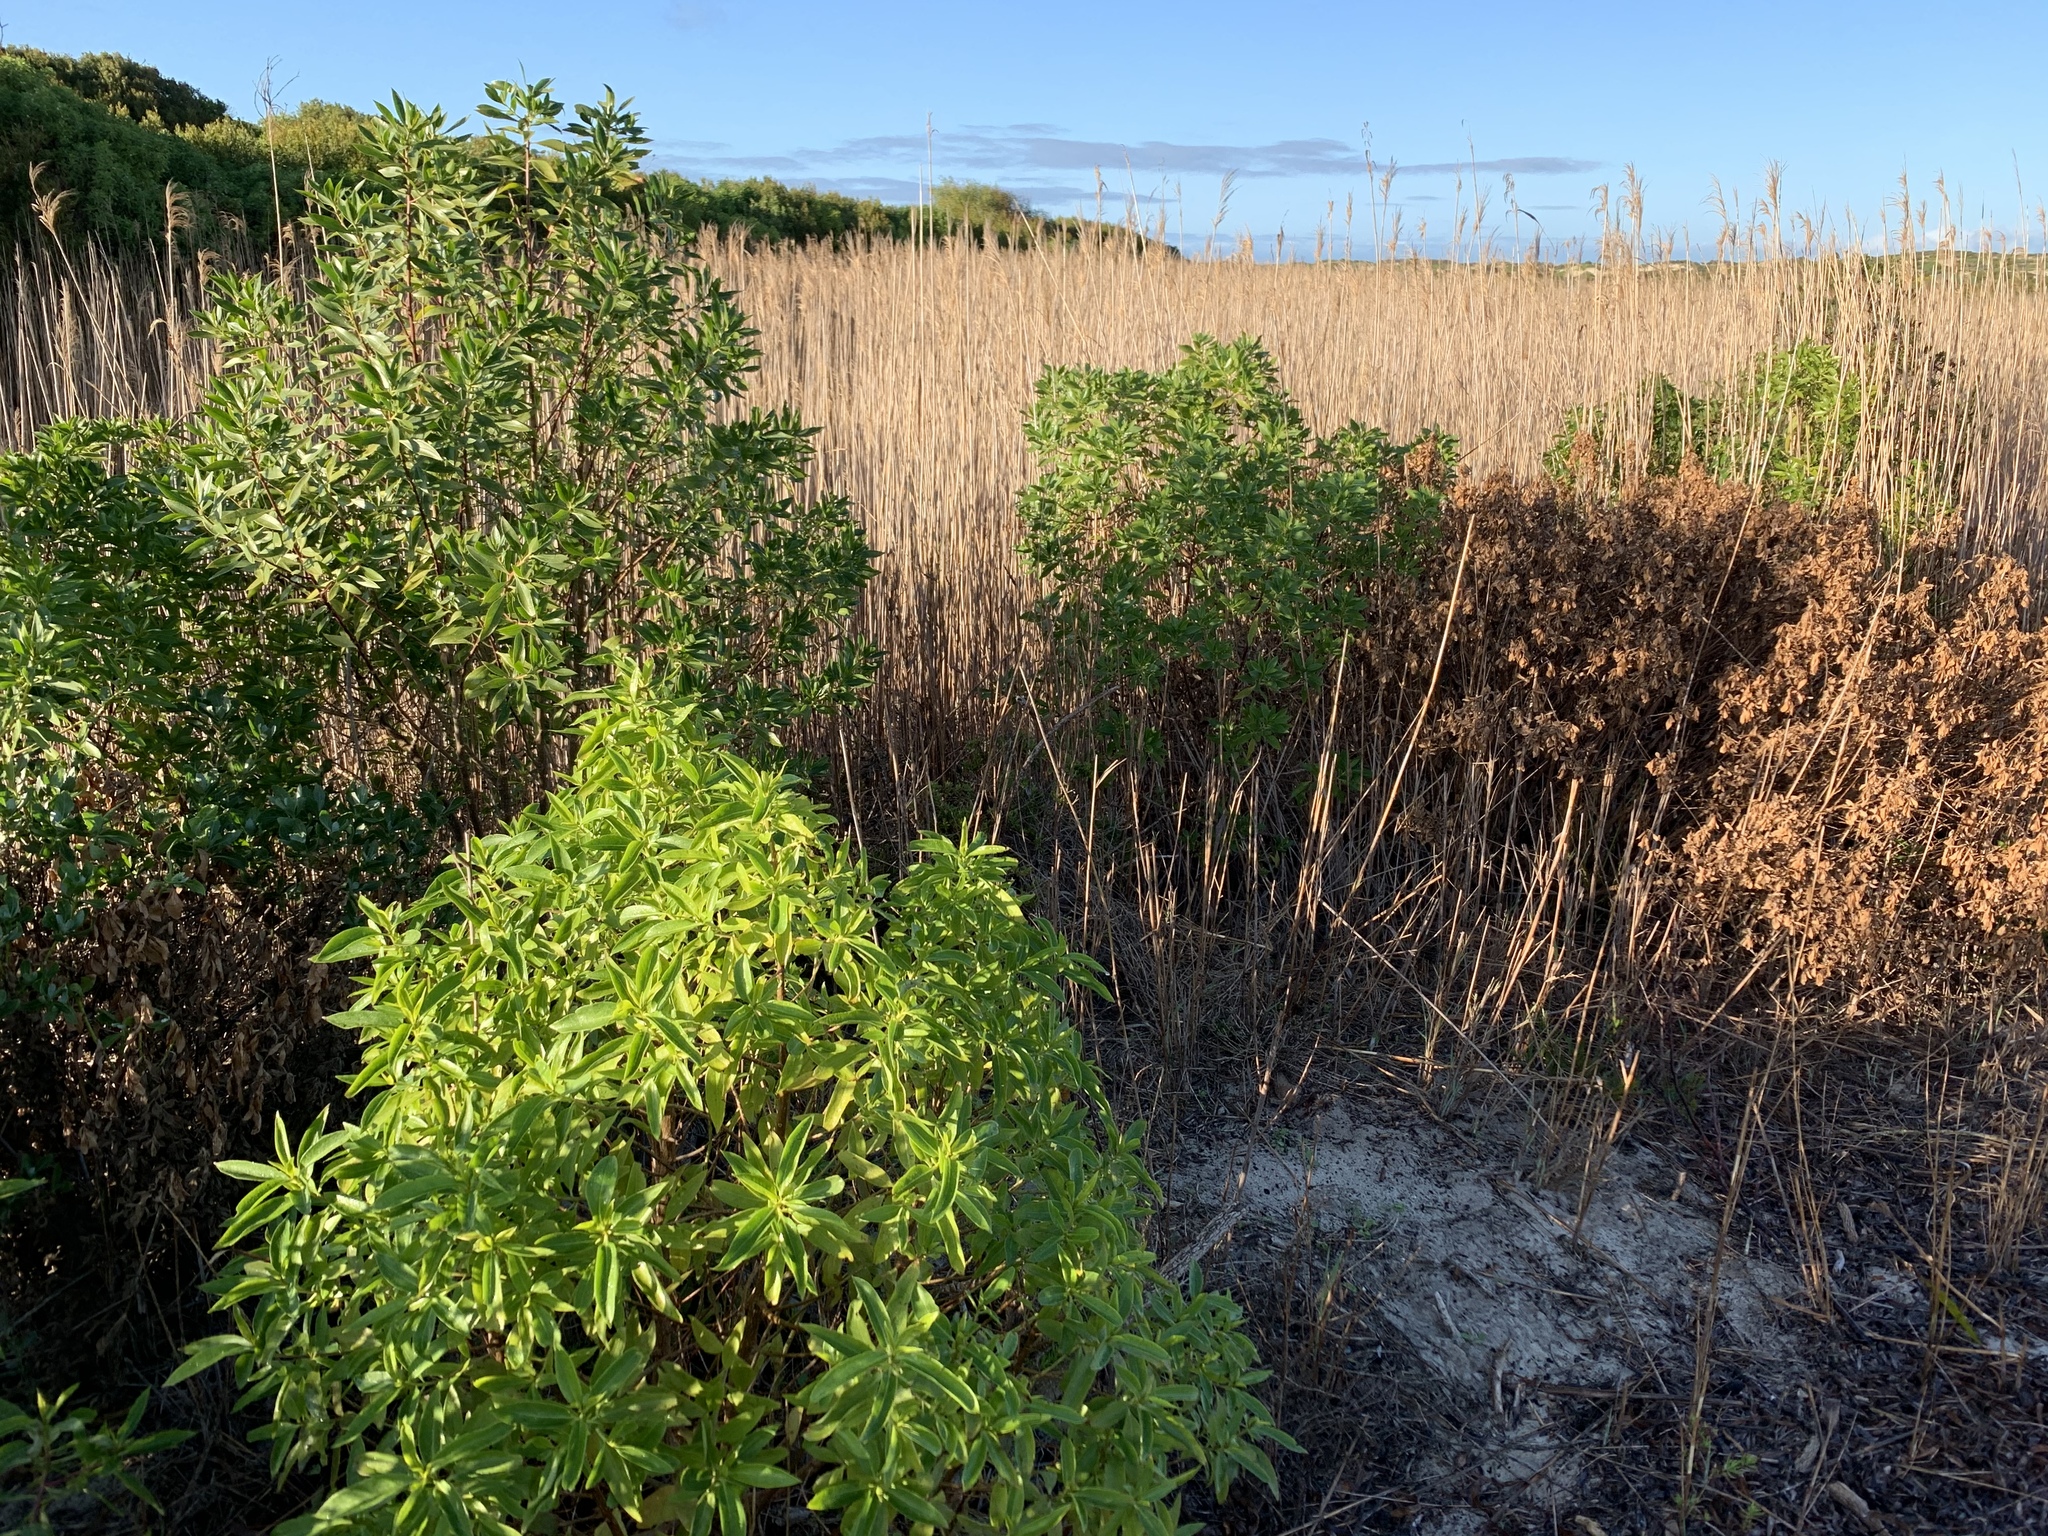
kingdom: Plantae
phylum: Tracheophyta
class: Magnoliopsida
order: Lamiales
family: Scrophulariaceae
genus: Myoporum
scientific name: Myoporum laetum
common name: Ngaio tree
